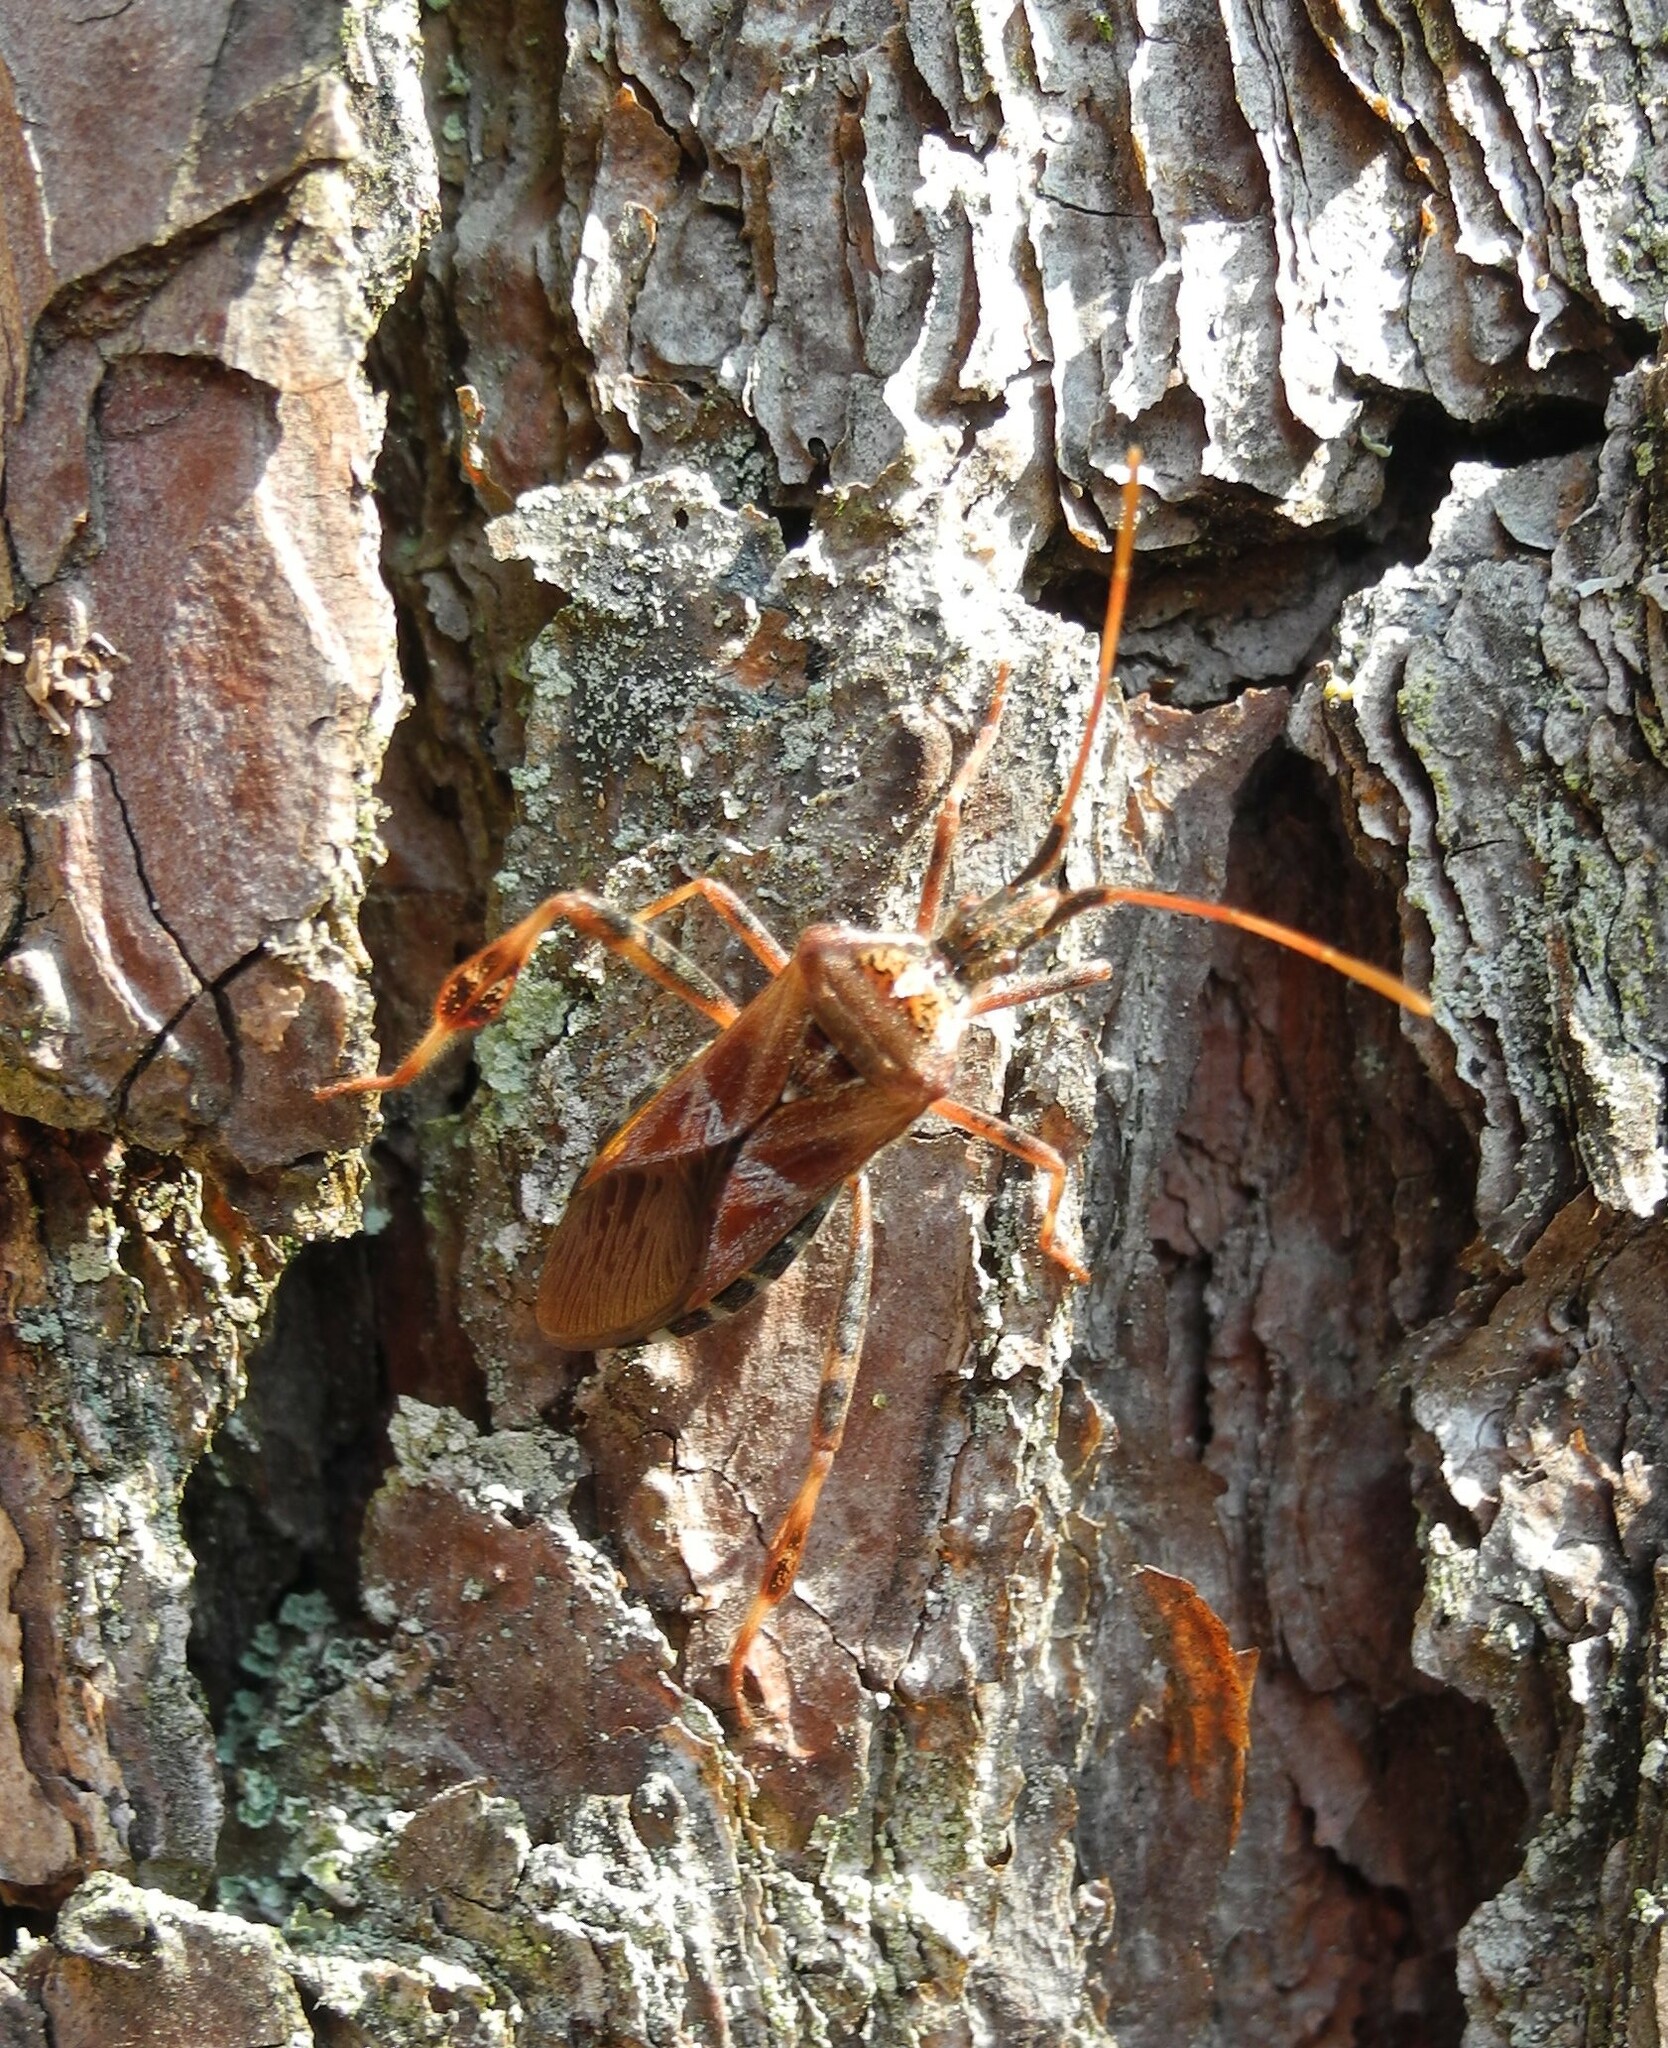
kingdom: Animalia
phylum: Arthropoda
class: Insecta
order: Hemiptera
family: Coreidae
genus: Leptoglossus
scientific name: Leptoglossus occidentalis
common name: Western conifer-seed bug
